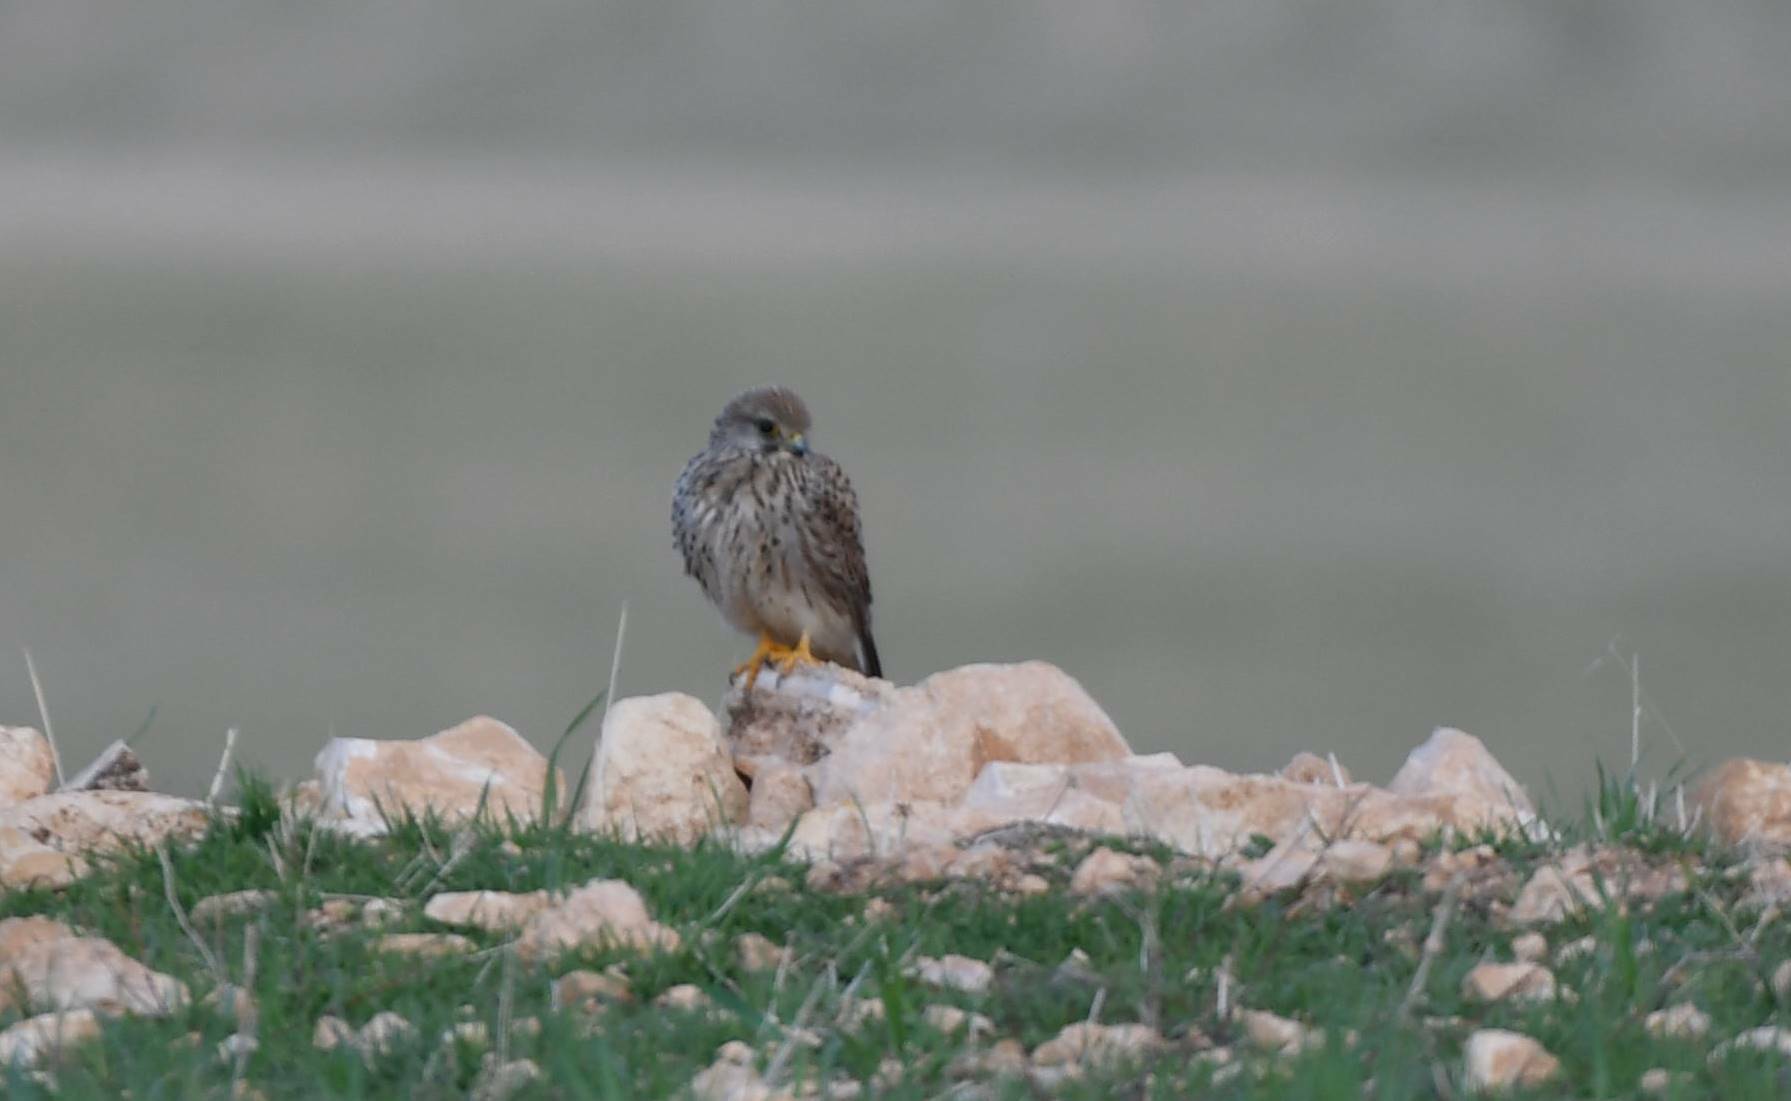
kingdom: Animalia
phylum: Chordata
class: Aves
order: Falconiformes
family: Falconidae
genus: Falco
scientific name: Falco tinnunculus
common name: Common kestrel
